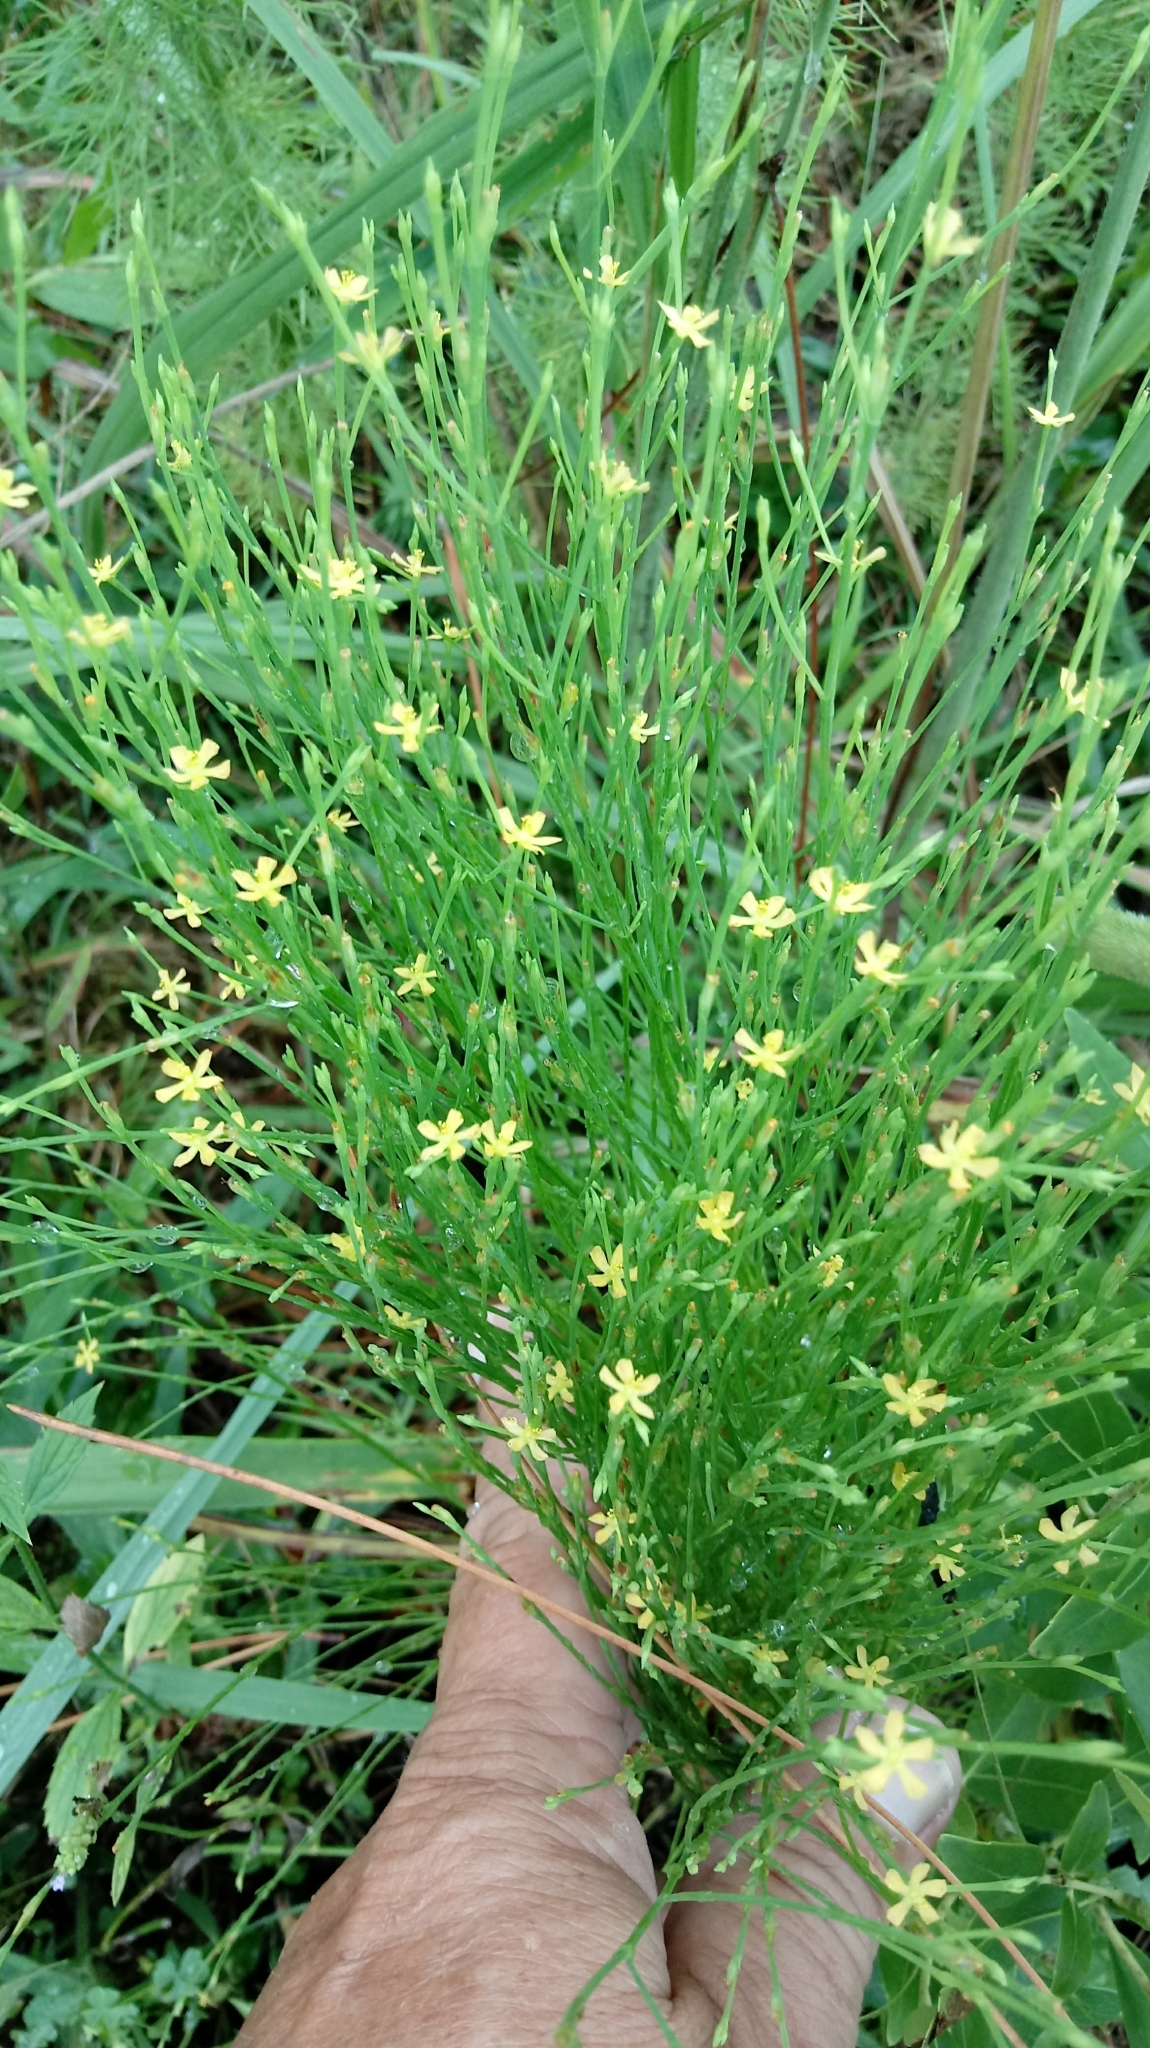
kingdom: Plantae
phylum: Tracheophyta
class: Magnoliopsida
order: Malpighiales
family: Hypericaceae
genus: Hypericum
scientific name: Hypericum gentianoides
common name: Gentian-leaved st. john's-wort
